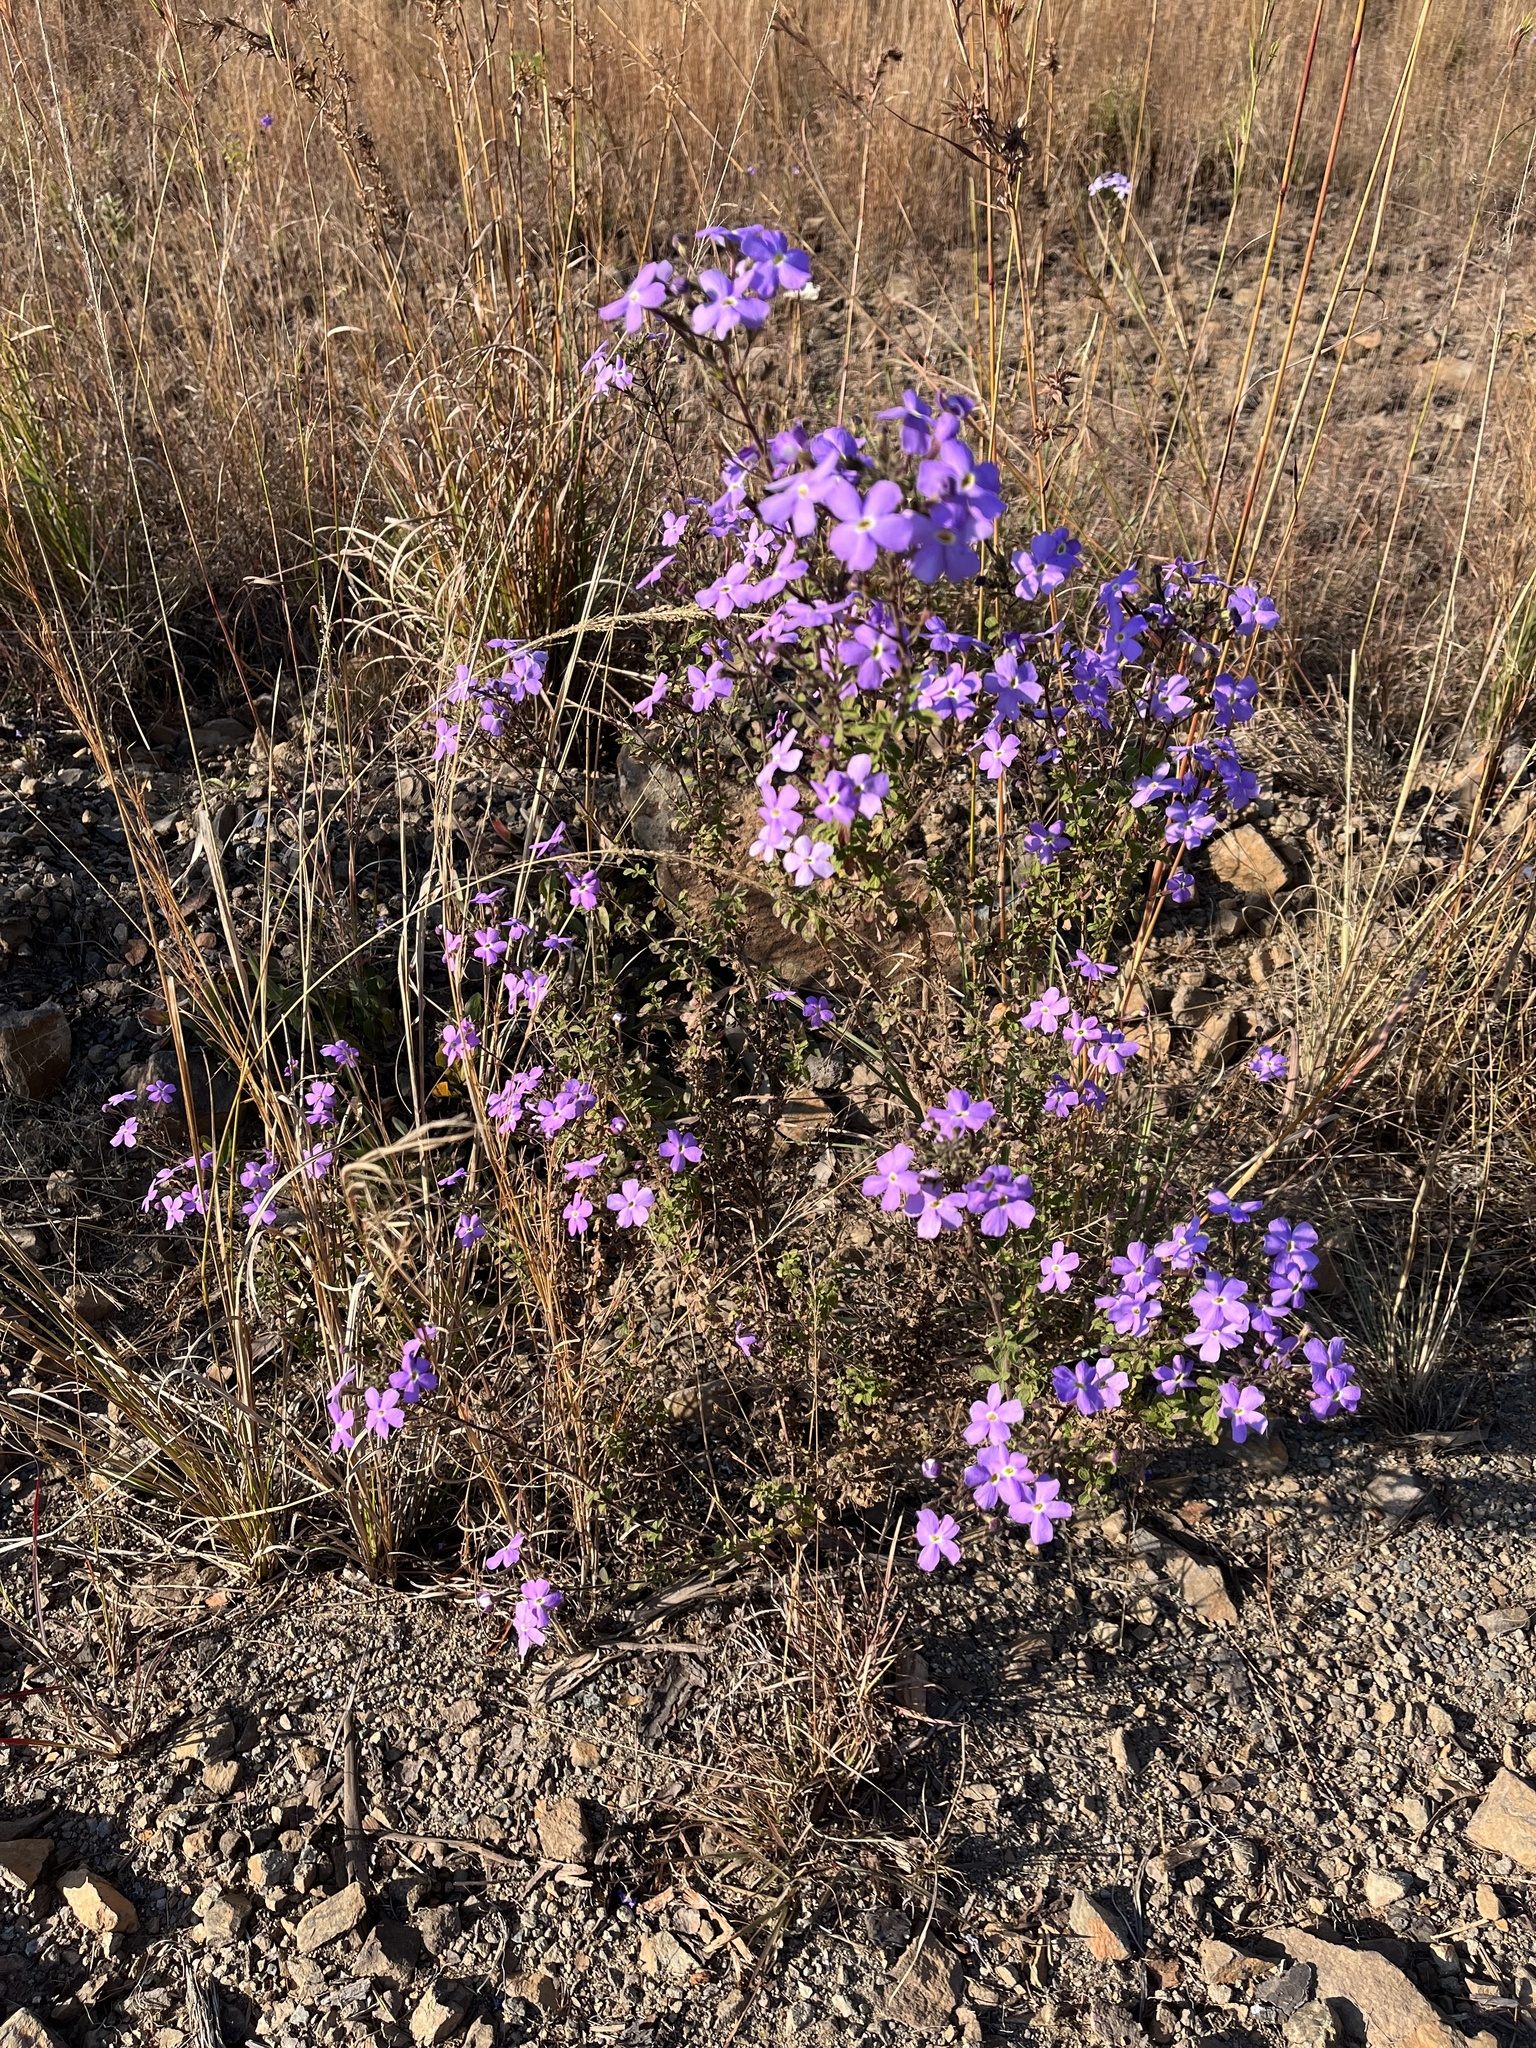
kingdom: Plantae
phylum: Tracheophyta
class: Magnoliopsida
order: Lamiales
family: Scrophulariaceae
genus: Jamesbrittenia
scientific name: Jamesbrittenia grandiflora
